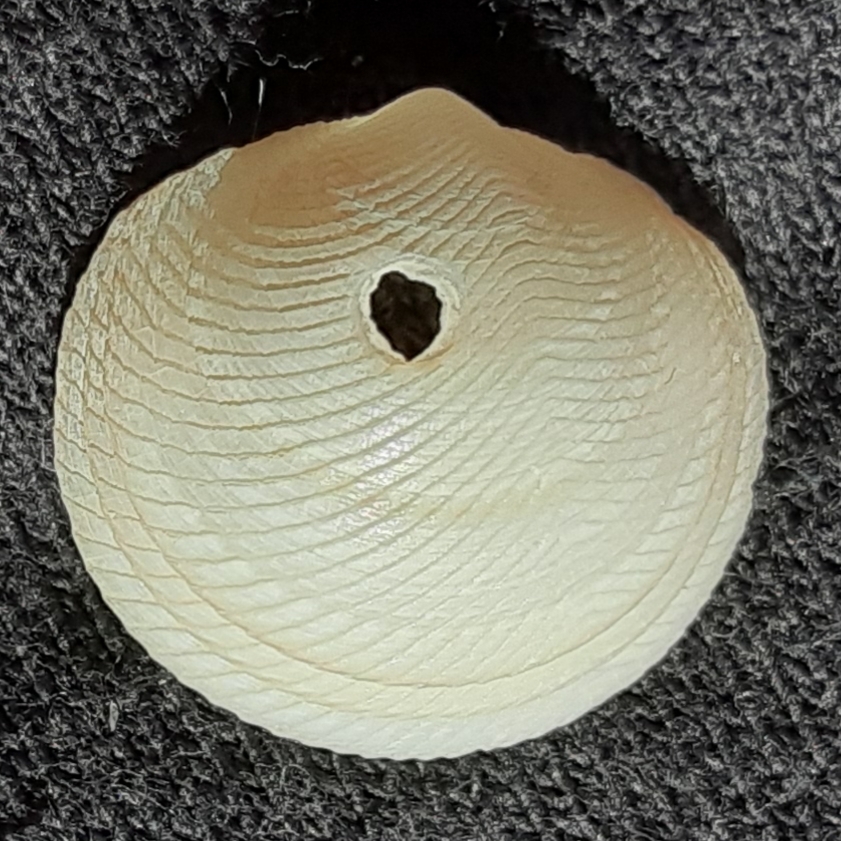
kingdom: Animalia
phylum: Mollusca
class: Bivalvia
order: Lucinida
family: Lucinidae
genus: Divalinga
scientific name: Divalinga quadrisulcata
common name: Cross-hatched lucine
